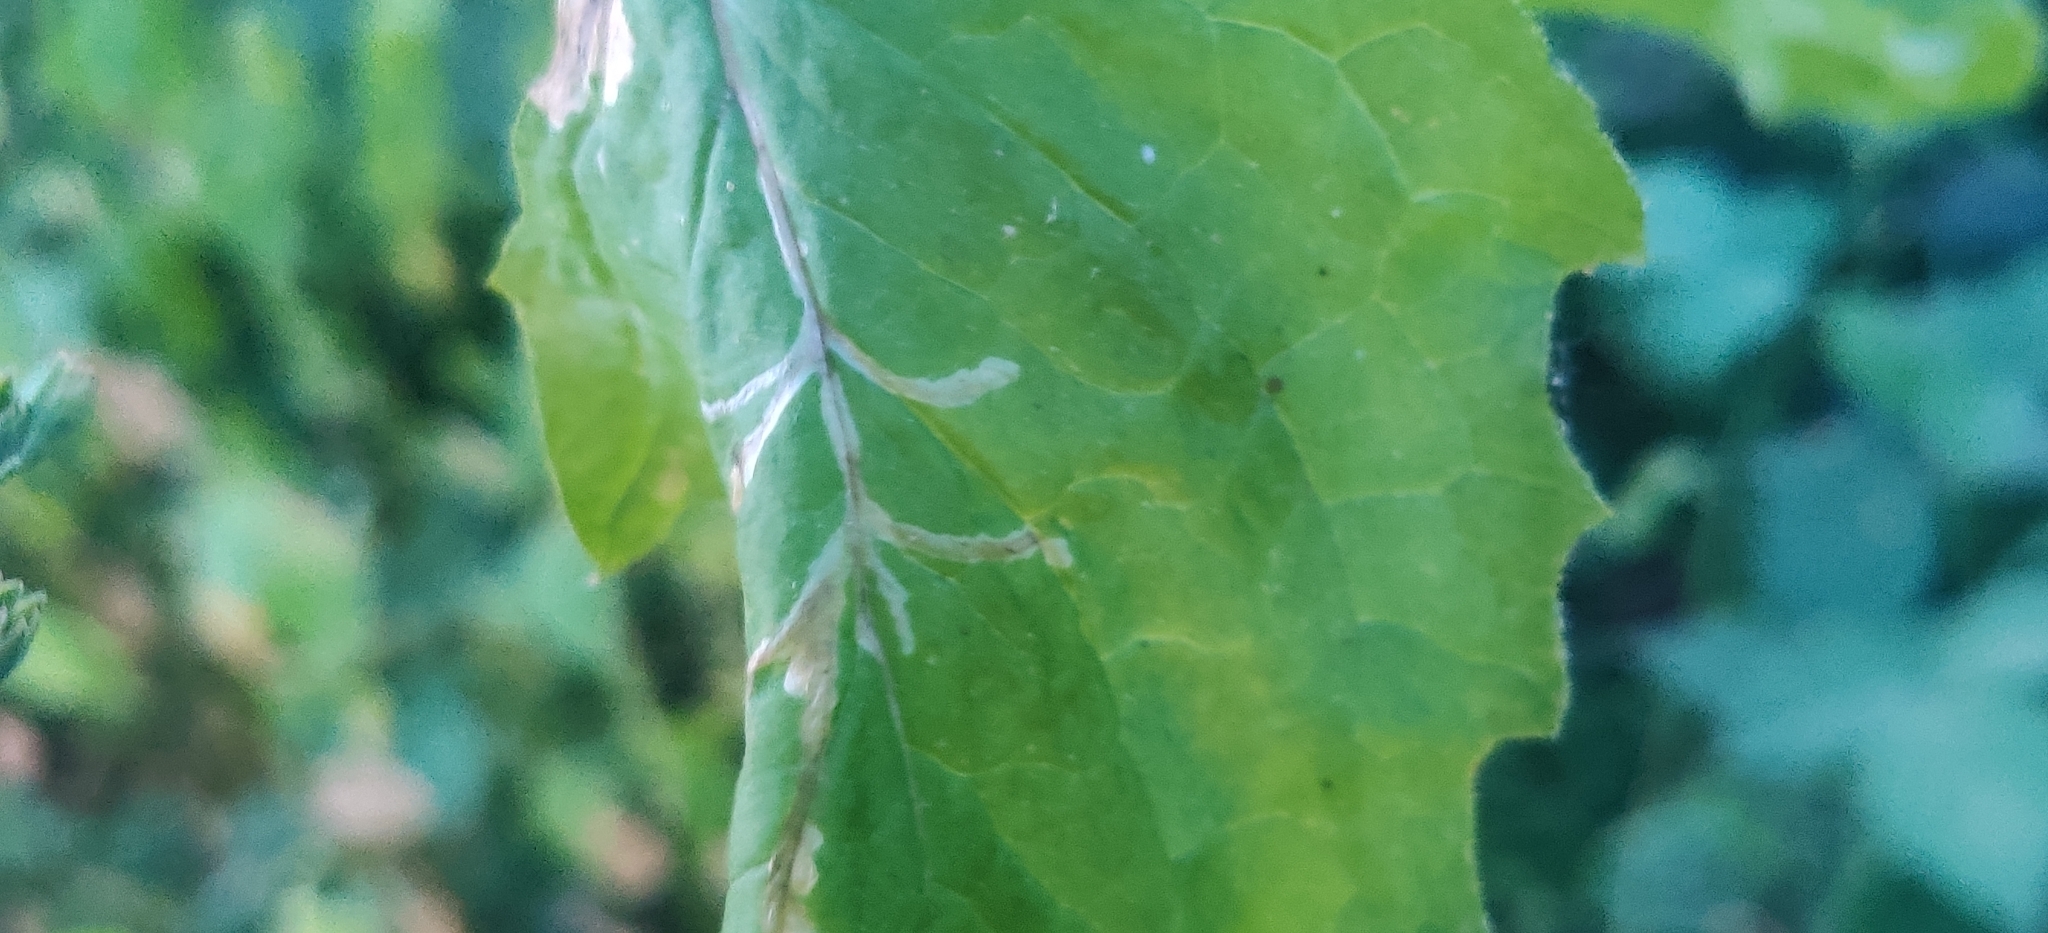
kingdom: Animalia
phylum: Arthropoda
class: Insecta
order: Diptera
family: Agromyzidae
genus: Liriomyza
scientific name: Liriomyza strigata
